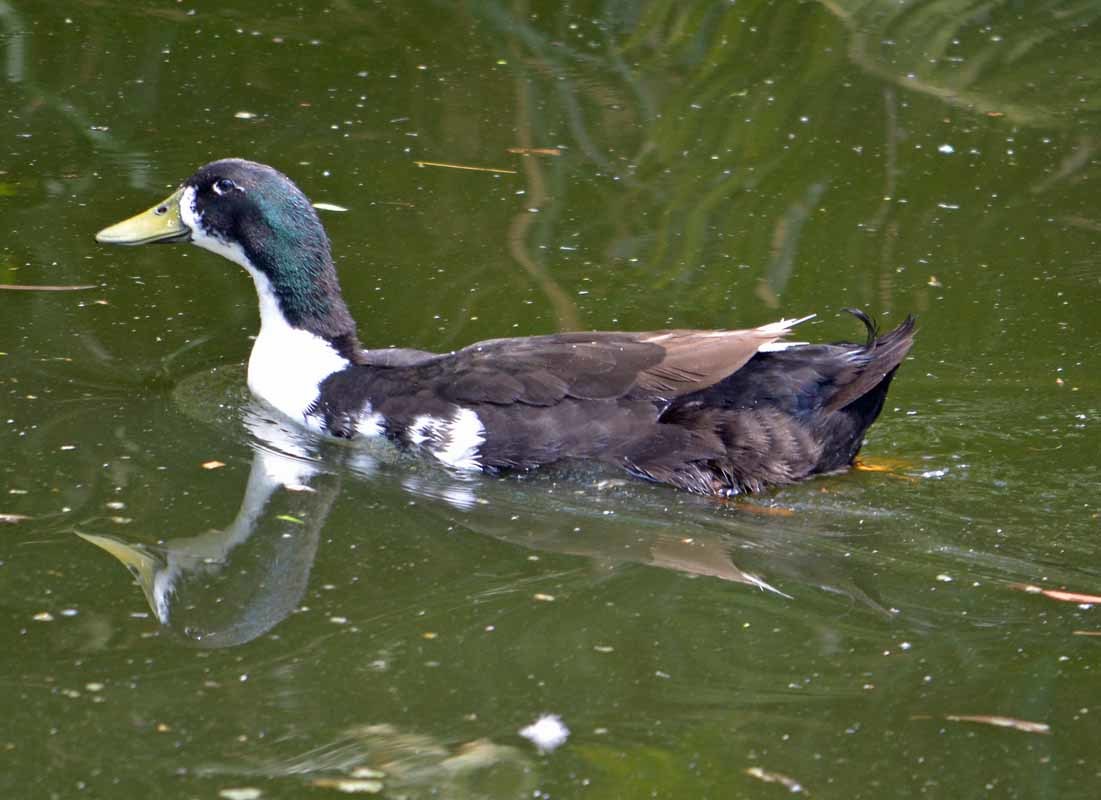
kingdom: Animalia
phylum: Chordata
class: Aves
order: Anseriformes
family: Anatidae
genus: Anas
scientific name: Anas platyrhynchos
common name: Mallard
